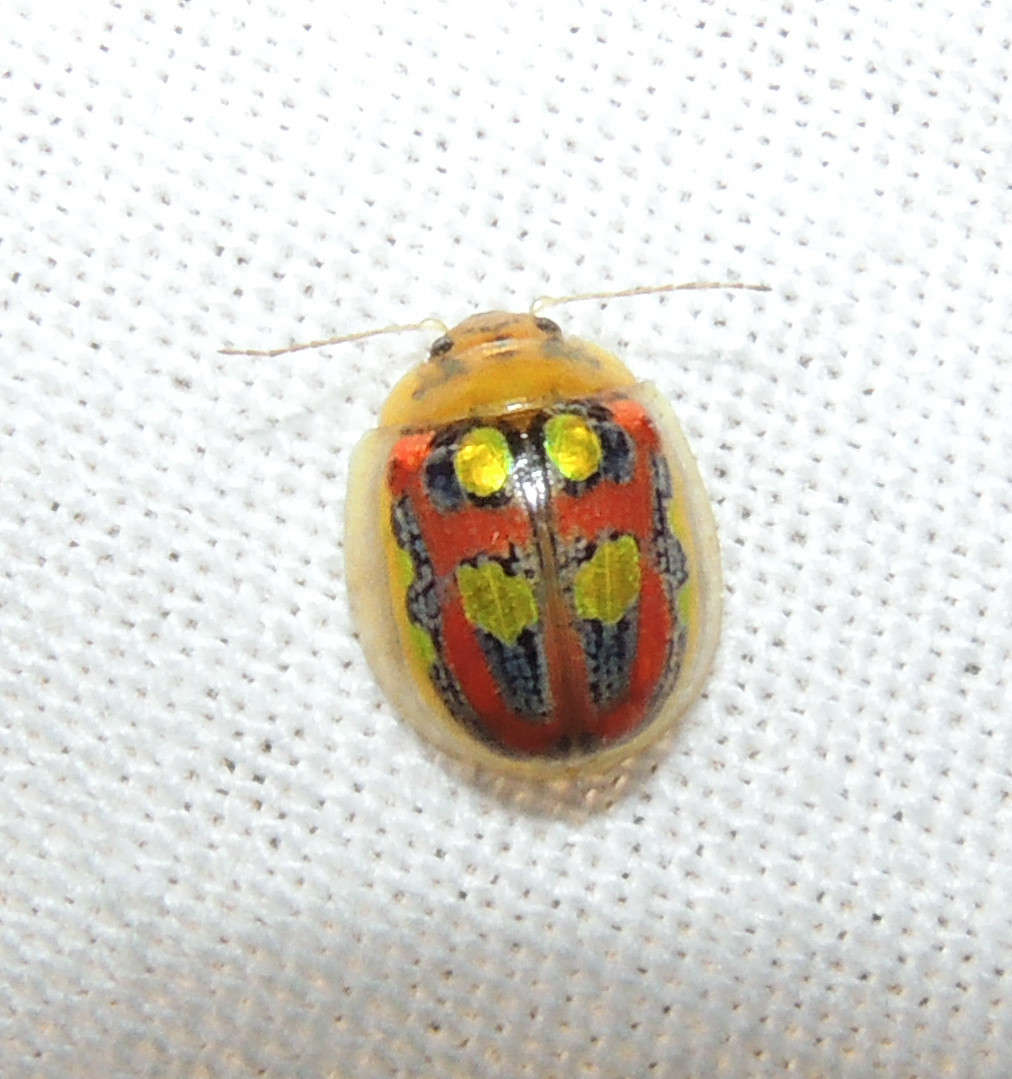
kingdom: Animalia
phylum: Arthropoda
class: Insecta
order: Coleoptera
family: Chrysomelidae
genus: Paropsisterna
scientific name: Paropsisterna
